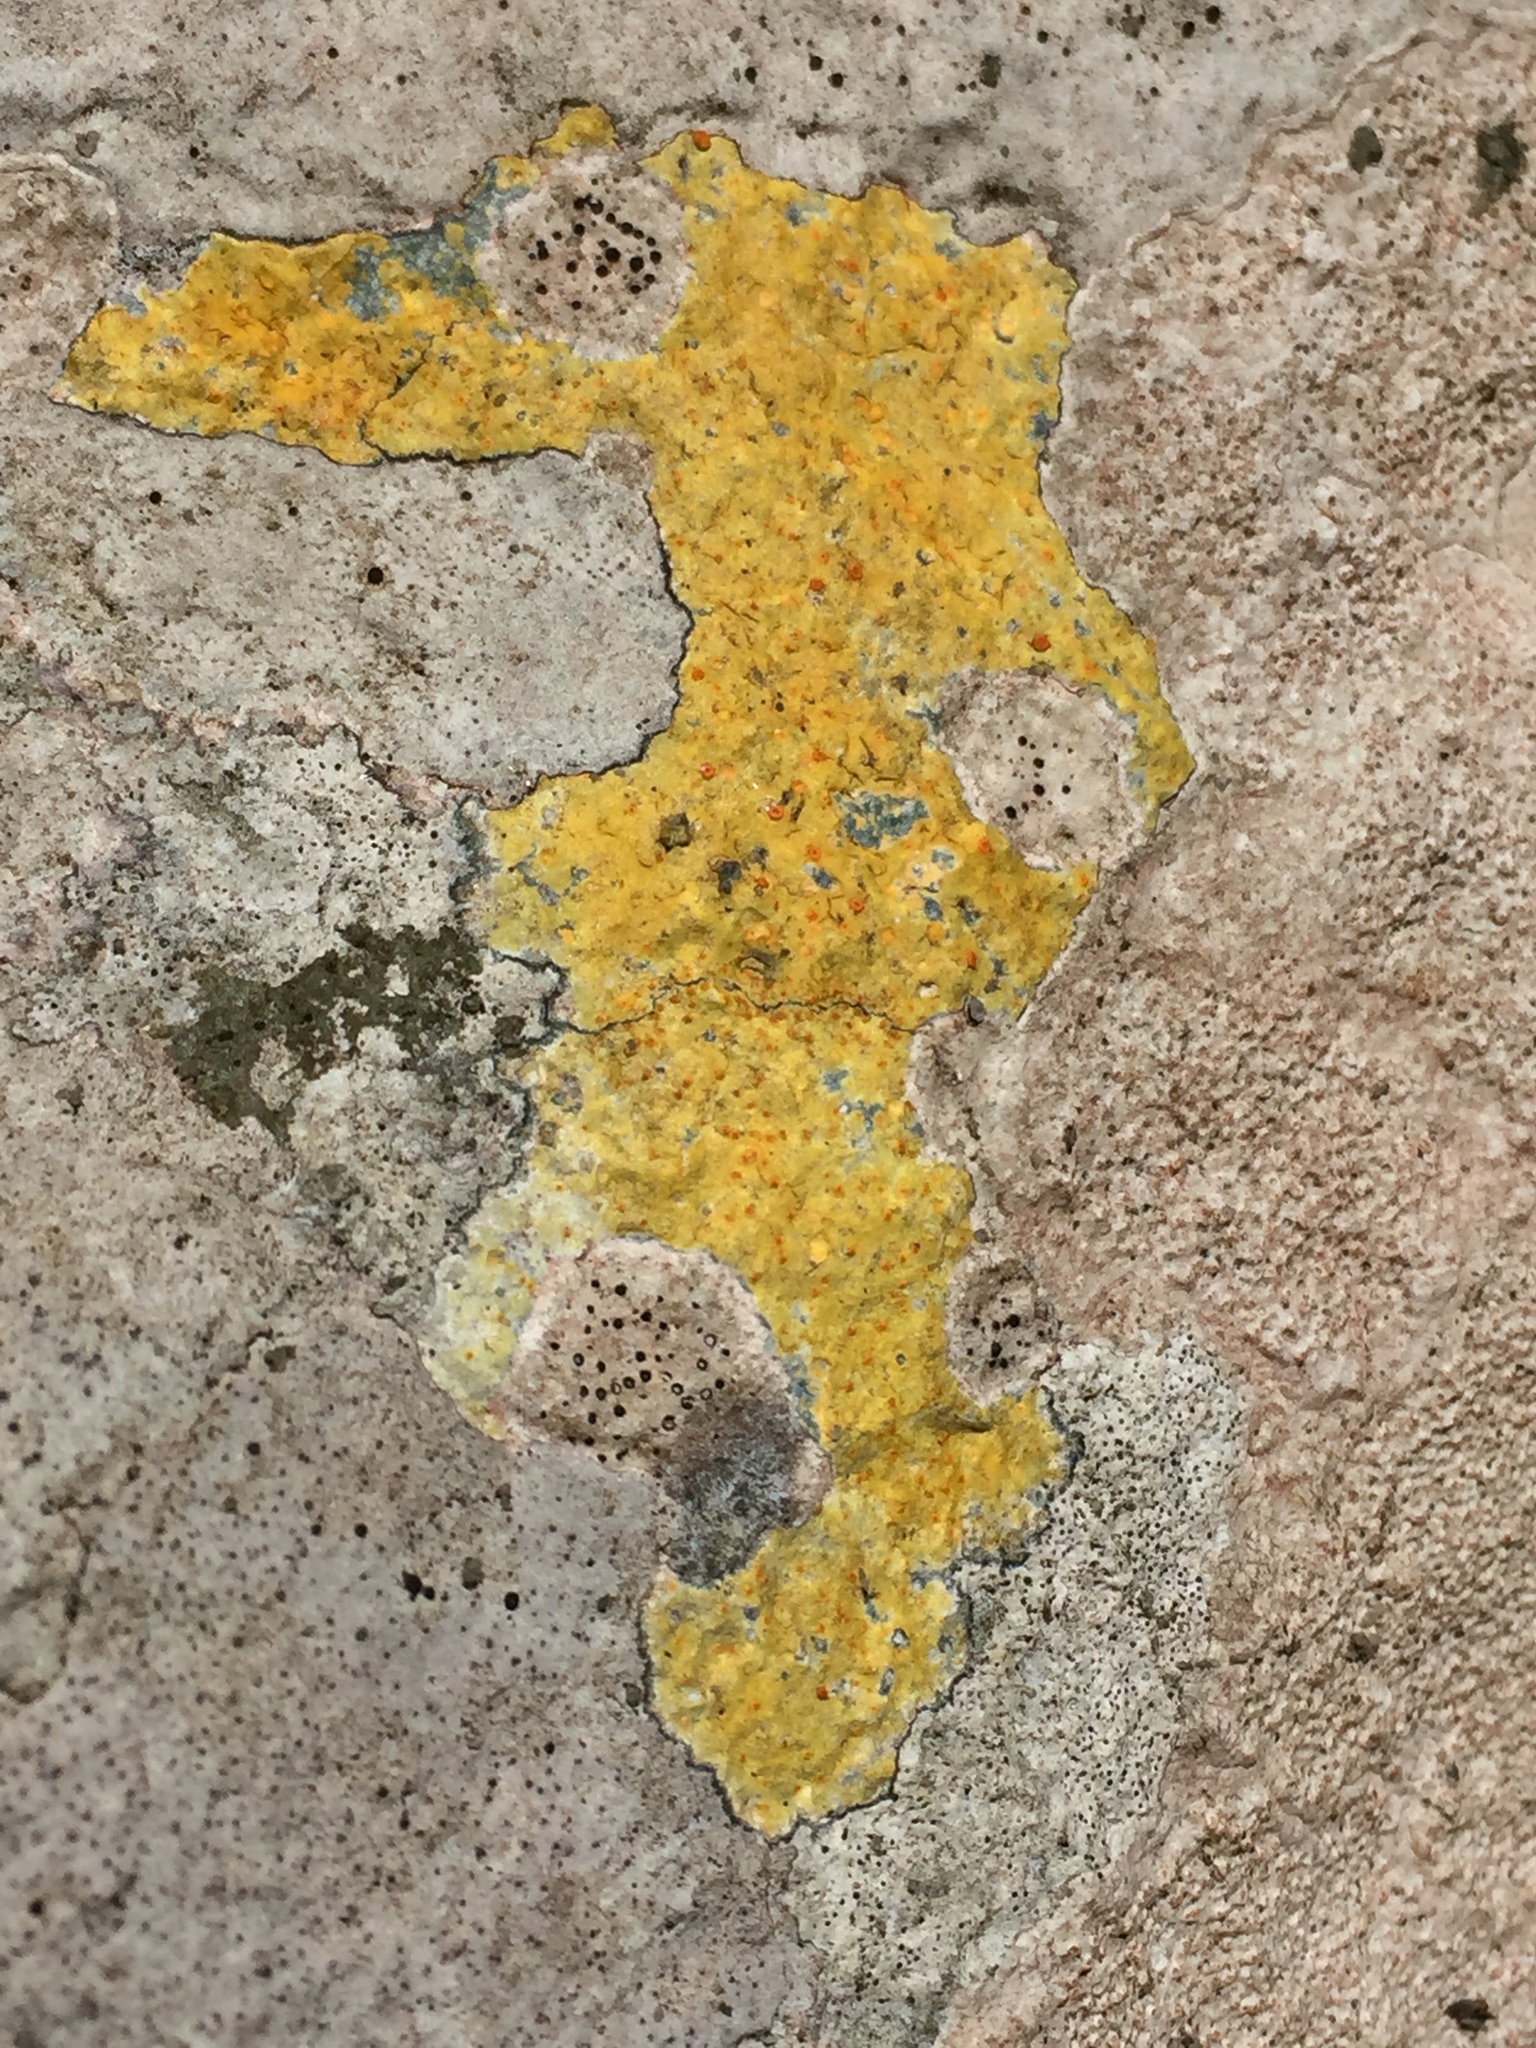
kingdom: Fungi
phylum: Ascomycota
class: Lecanoromycetes
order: Teloschistales
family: Teloschistaceae
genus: Gyalolechia
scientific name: Gyalolechia flavovirescens
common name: Sulphur firedot
